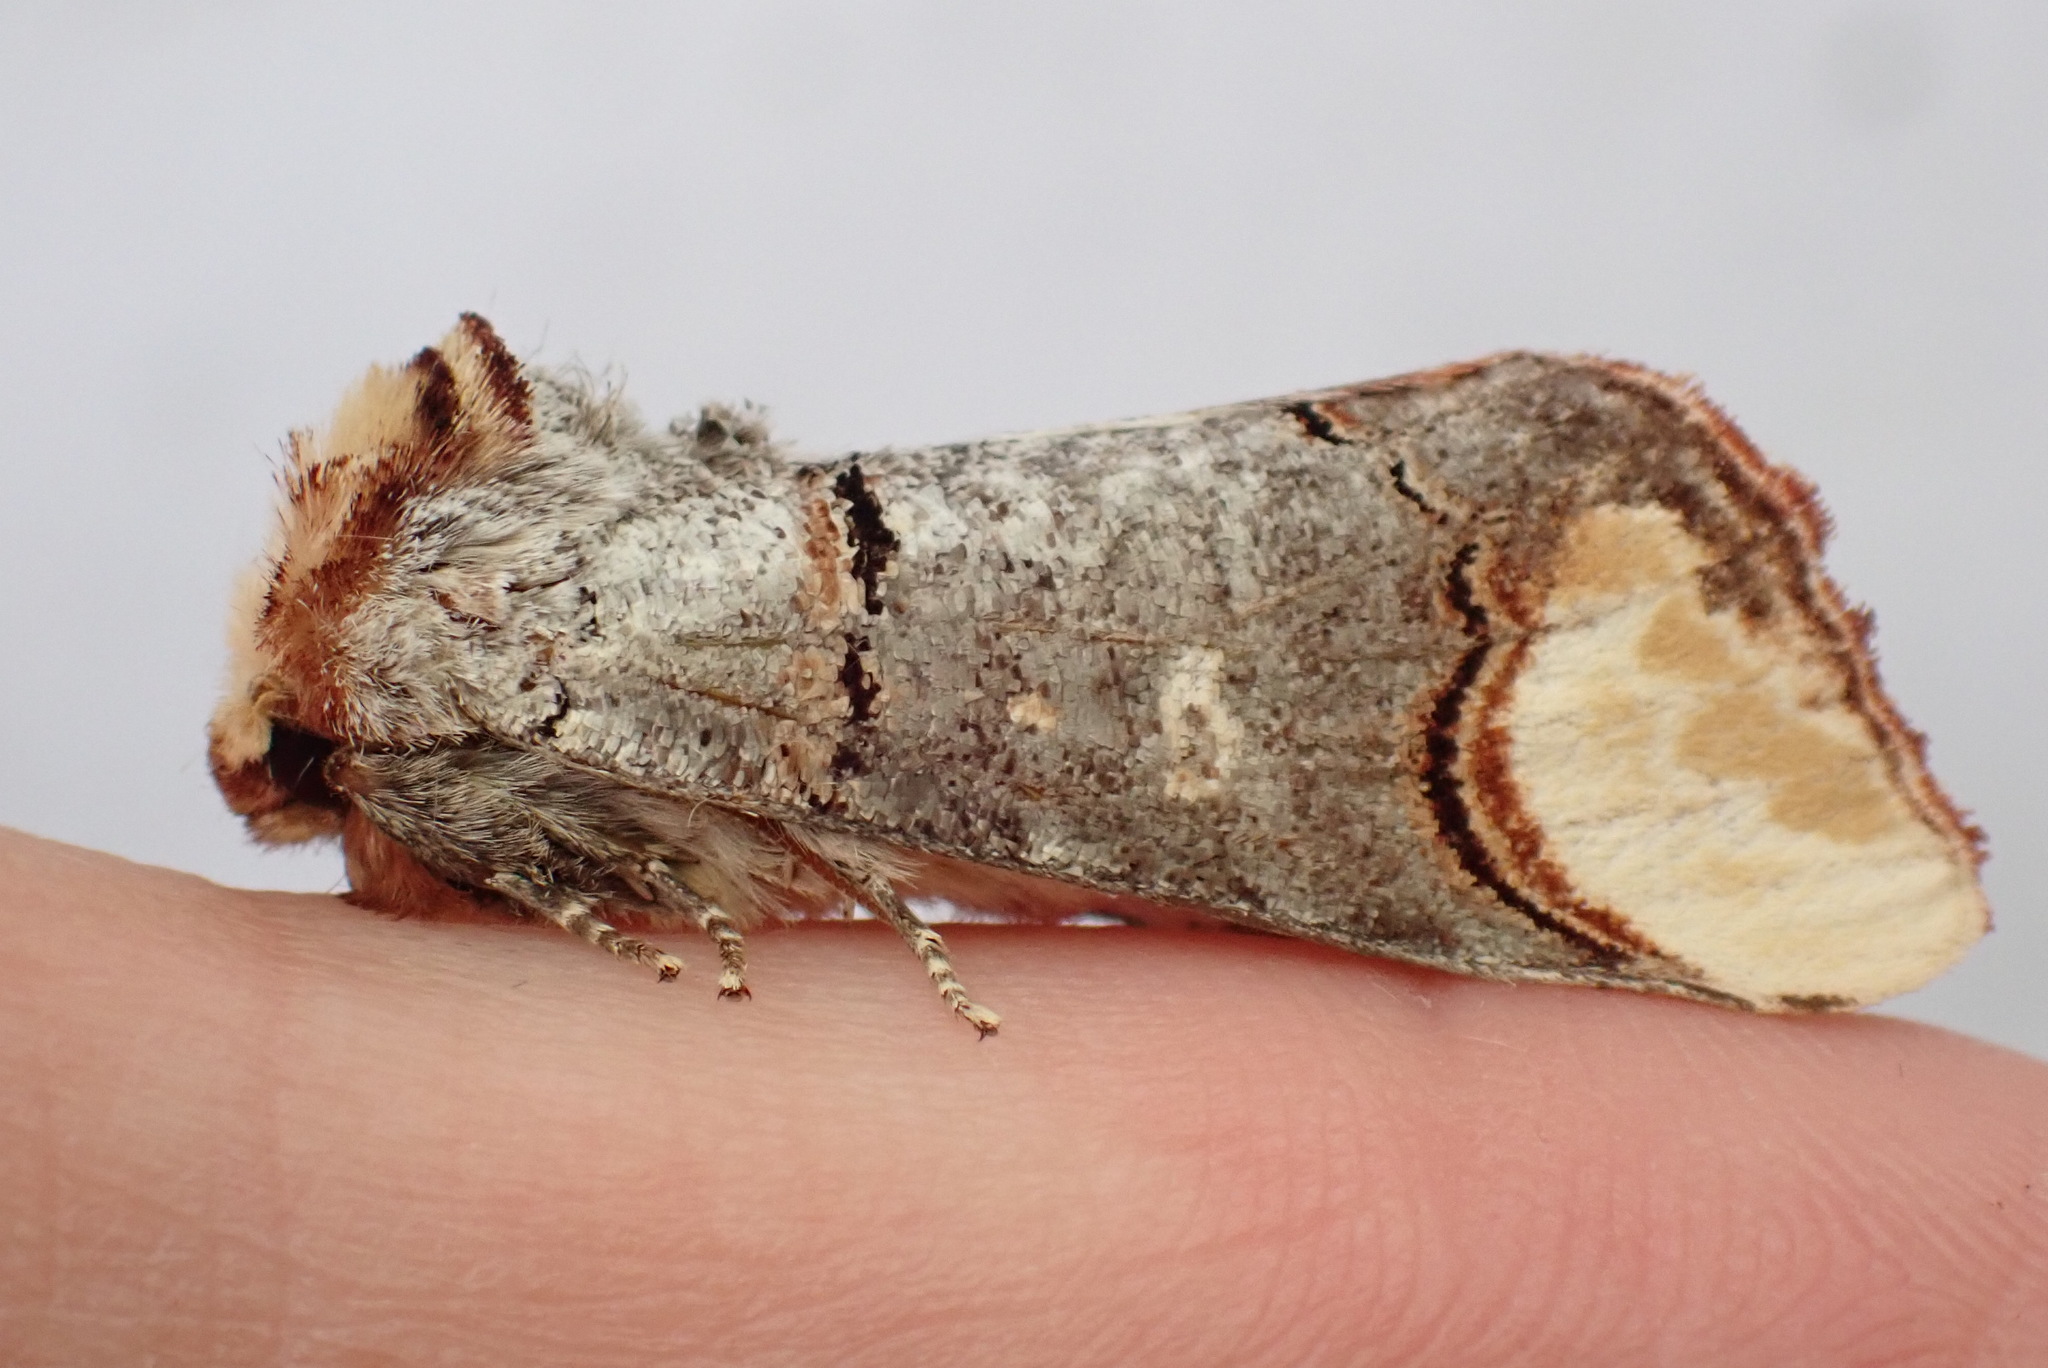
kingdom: Animalia
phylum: Arthropoda
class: Insecta
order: Lepidoptera
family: Notodontidae
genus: Phalera
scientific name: Phalera bucephala
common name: Buff-tip
